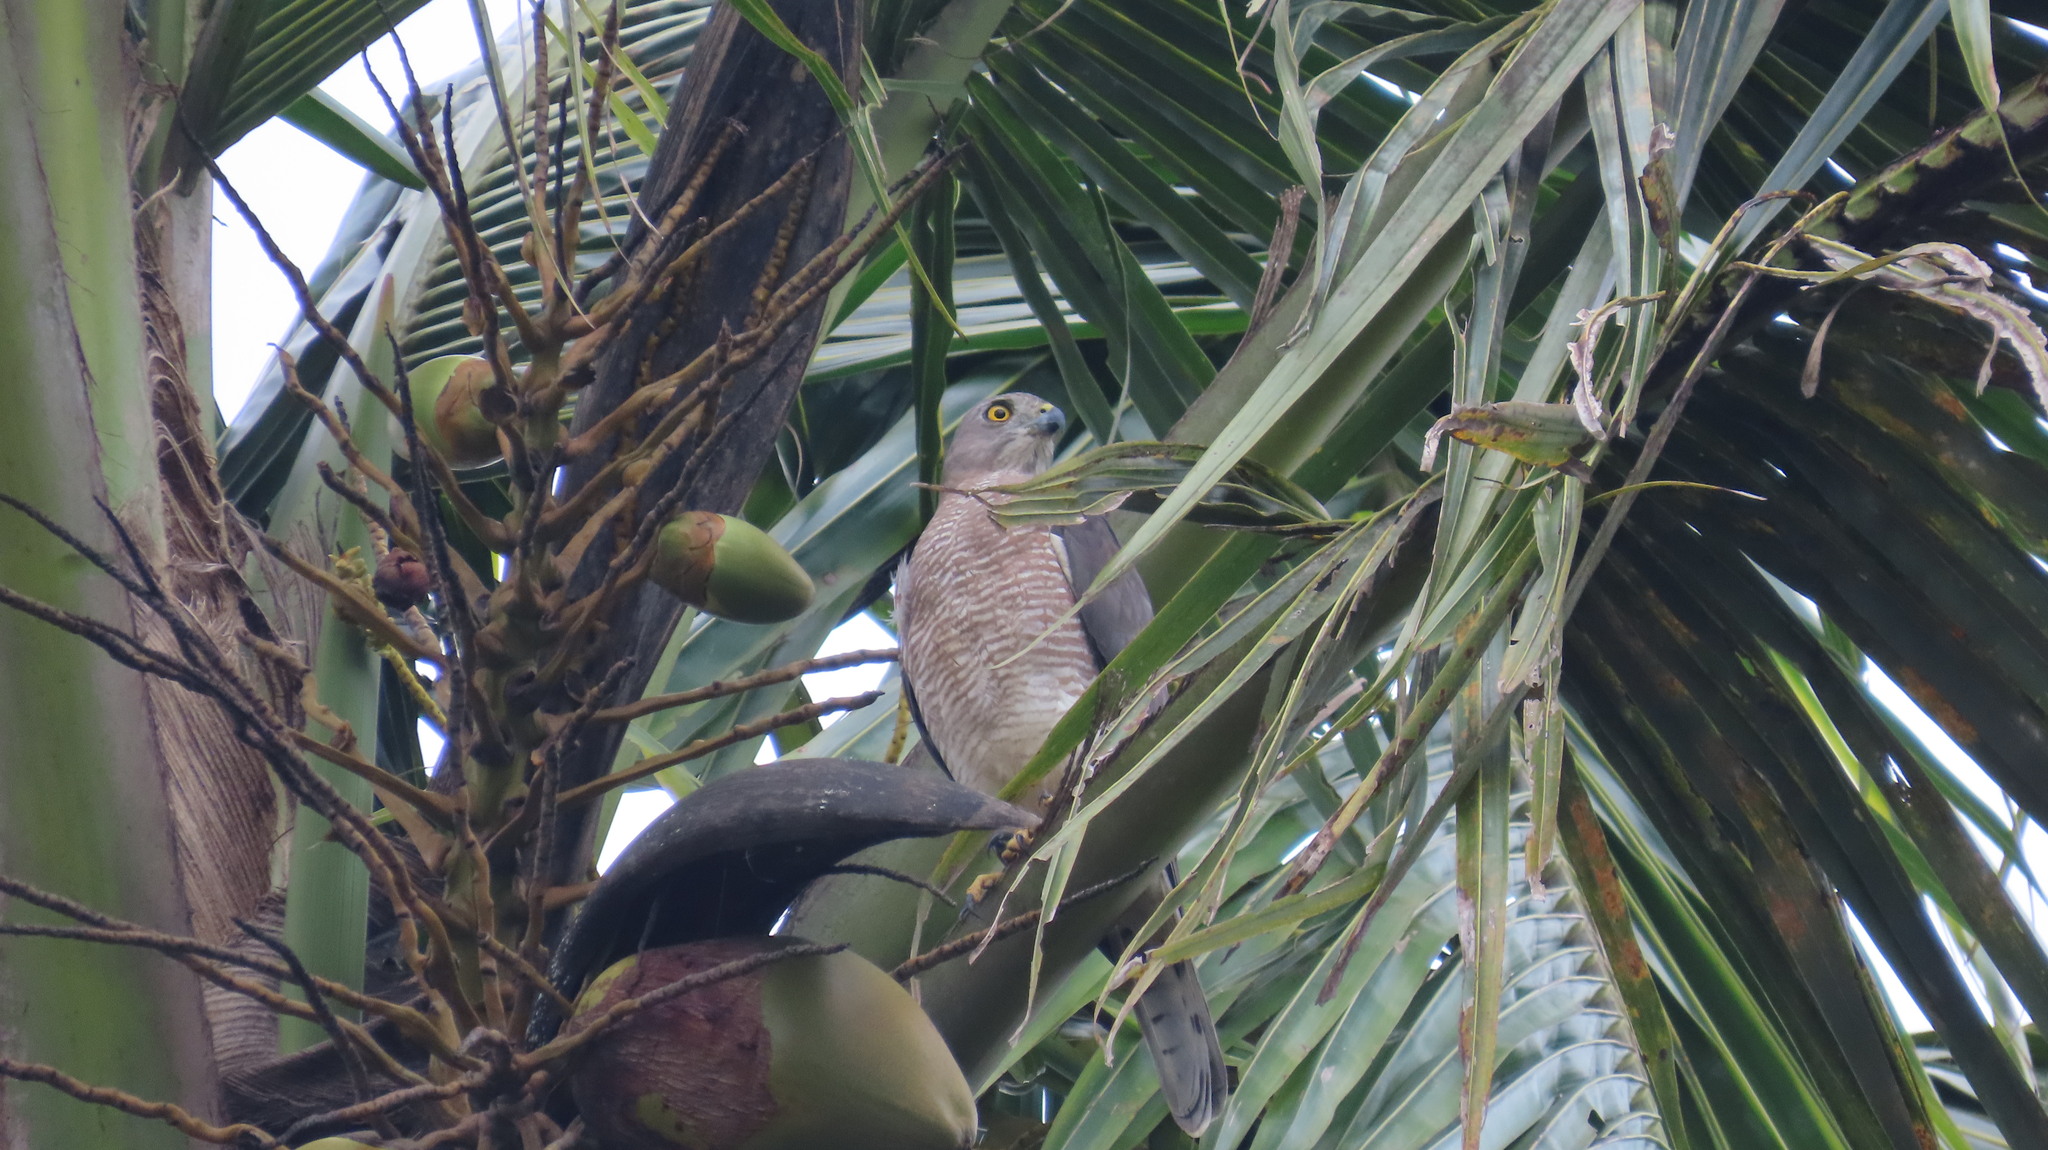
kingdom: Animalia
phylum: Chordata
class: Aves
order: Accipitriformes
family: Accipitridae
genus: Accipiter
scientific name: Accipiter badius
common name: Shikra
